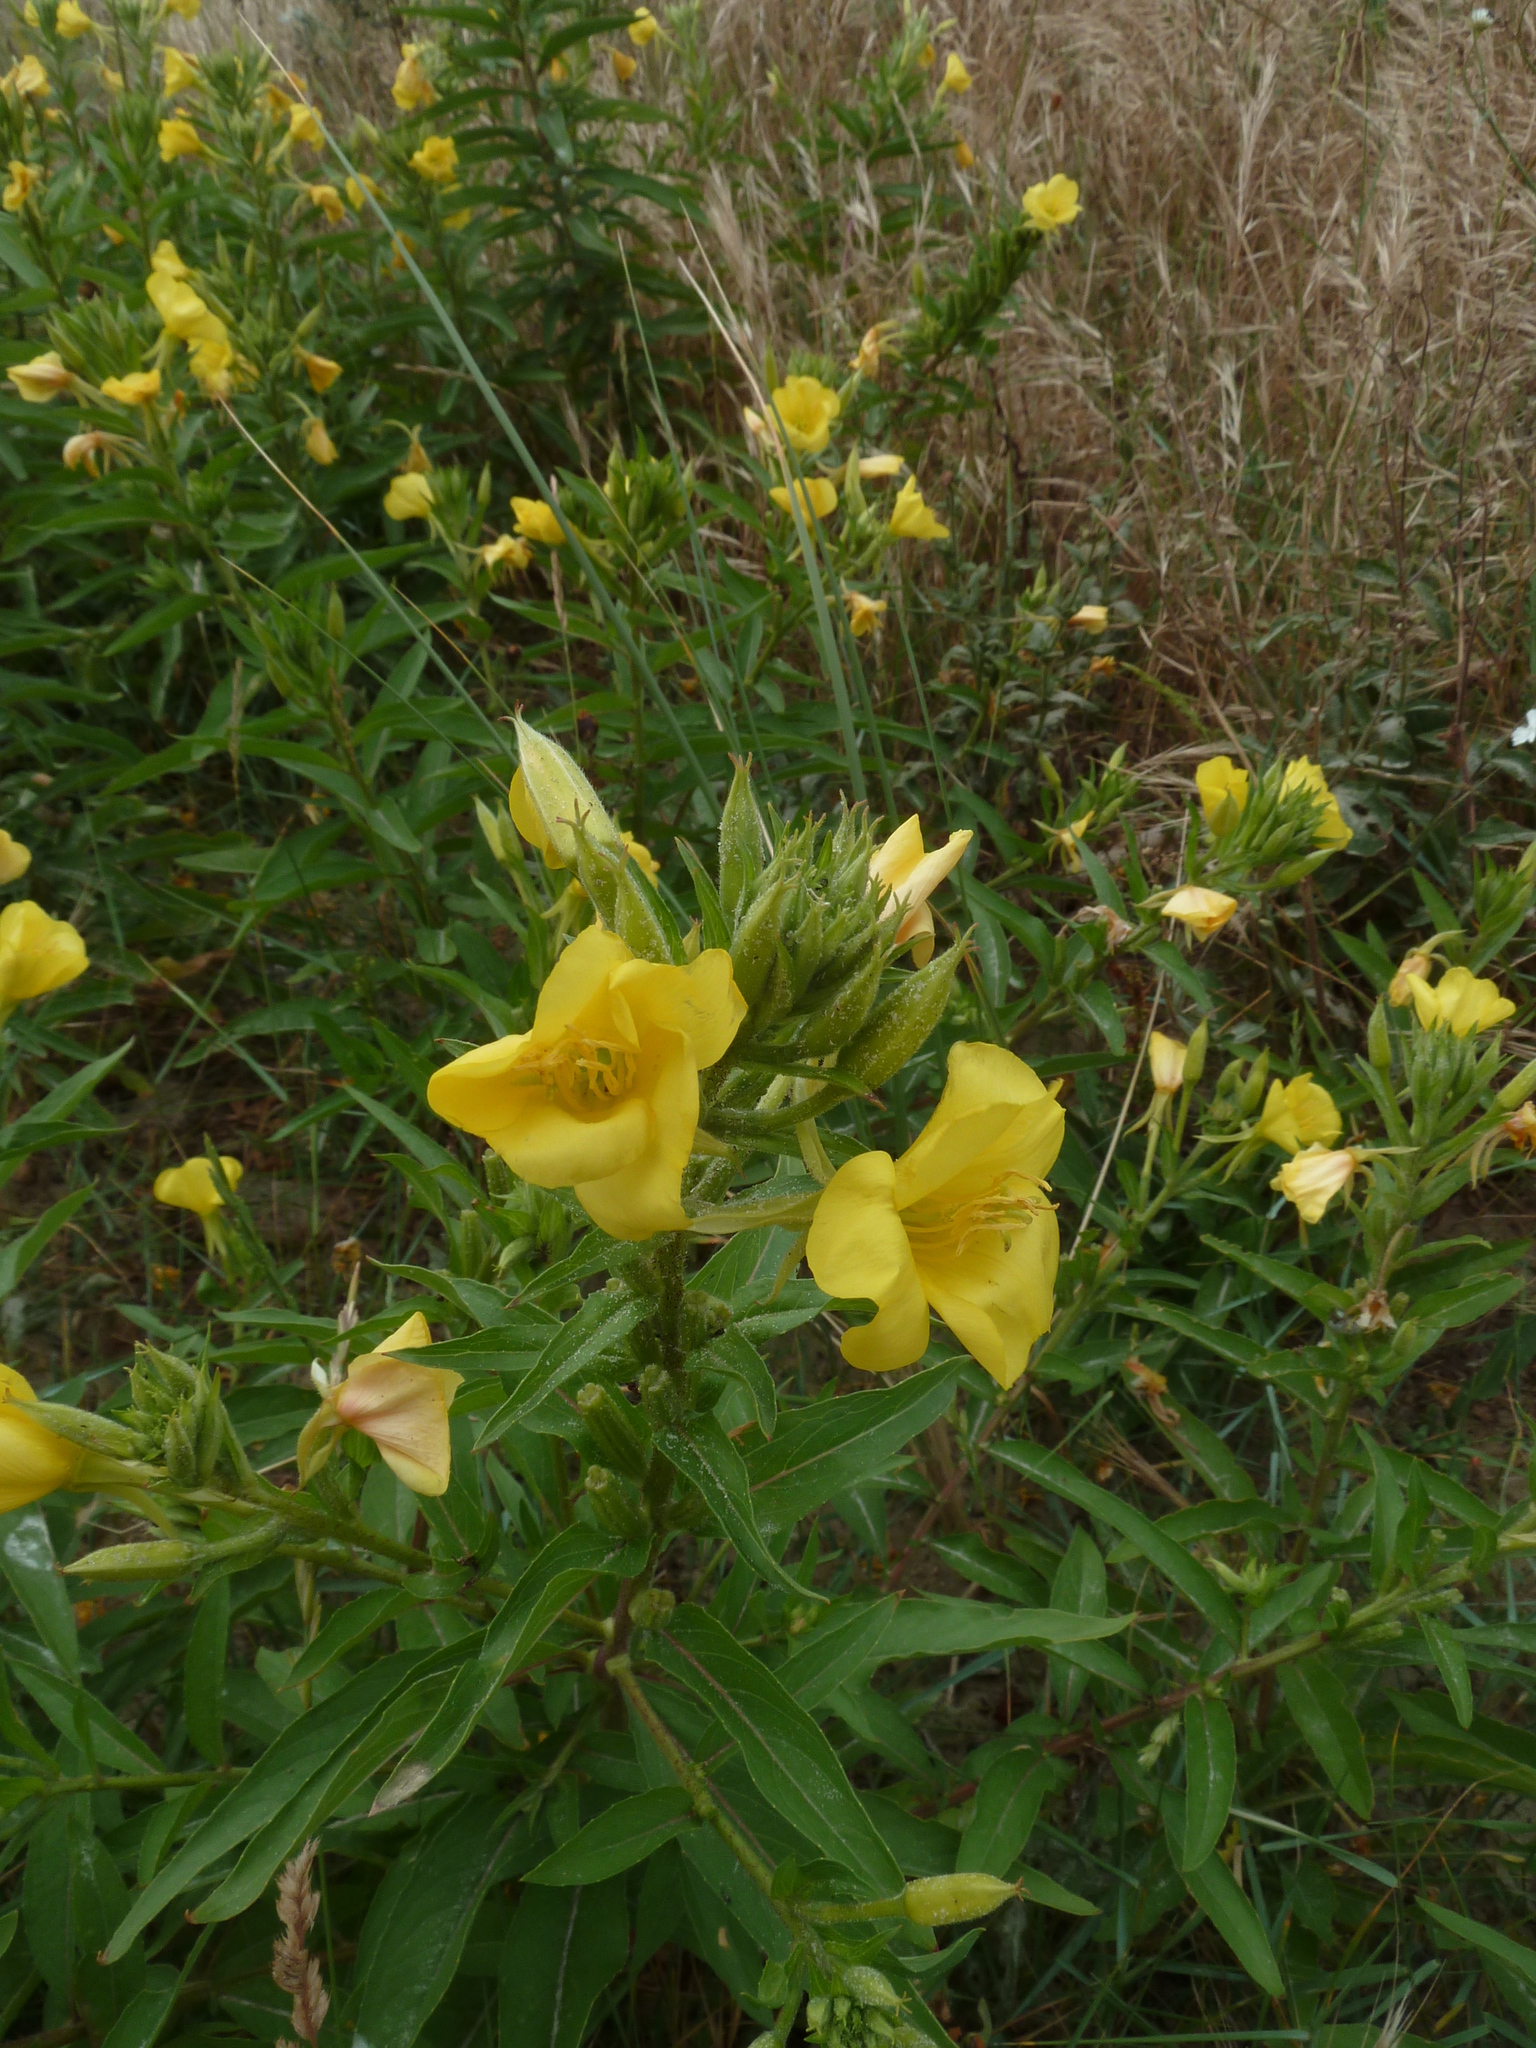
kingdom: Plantae
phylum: Tracheophyta
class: Magnoliopsida
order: Myrtales
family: Onagraceae
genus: Oenothera
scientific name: Oenothera biennis
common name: Common evening-primrose
